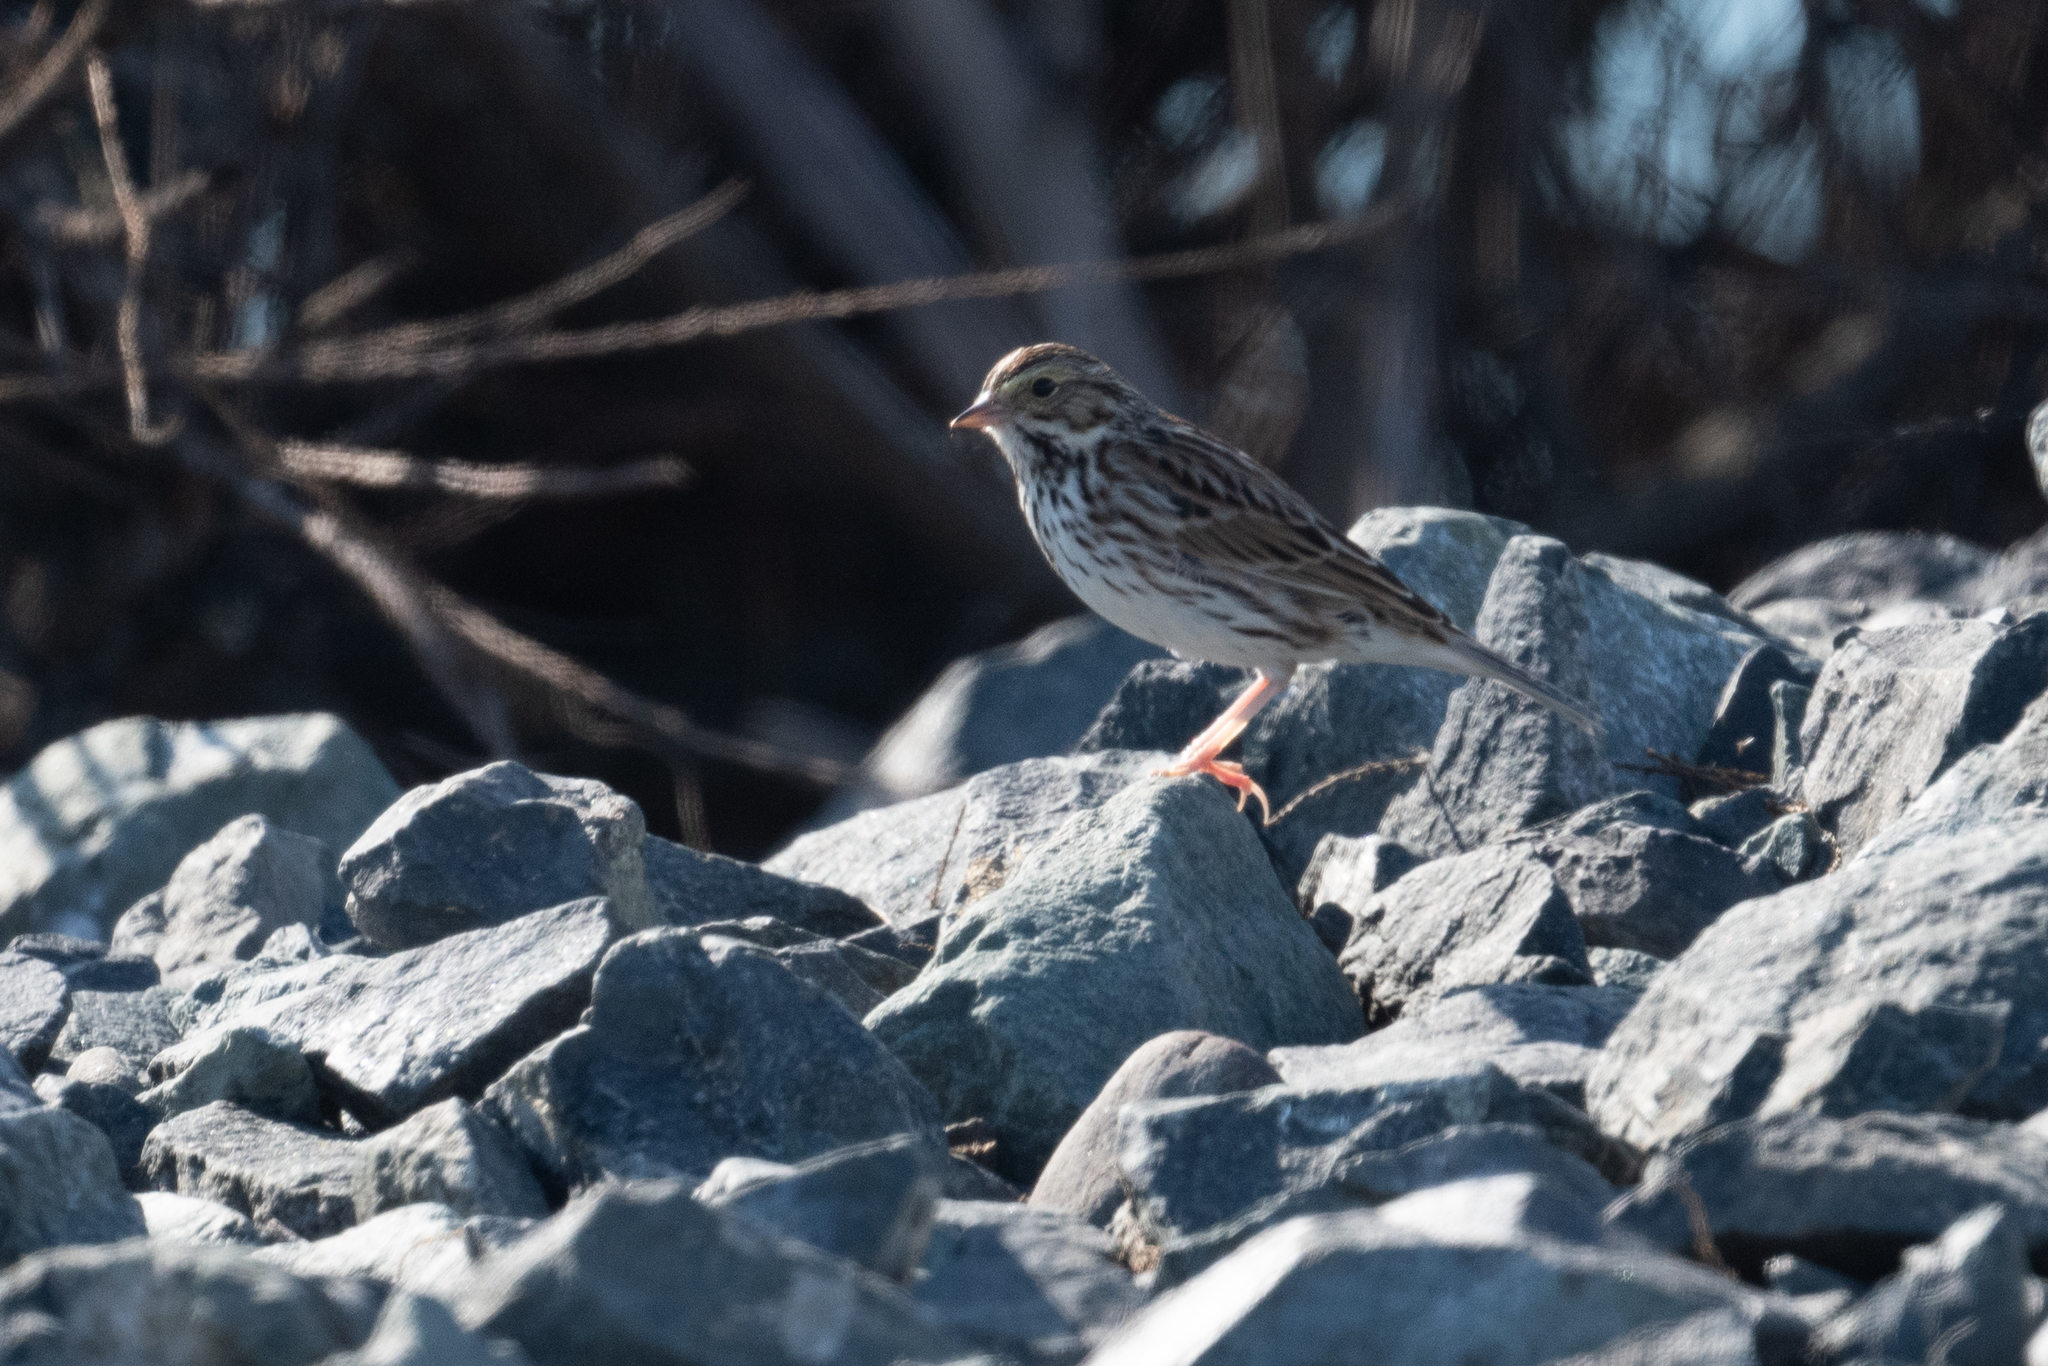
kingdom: Animalia
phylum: Chordata
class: Aves
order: Passeriformes
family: Passerellidae
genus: Passerculus
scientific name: Passerculus sandwichensis
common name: Savannah sparrow
